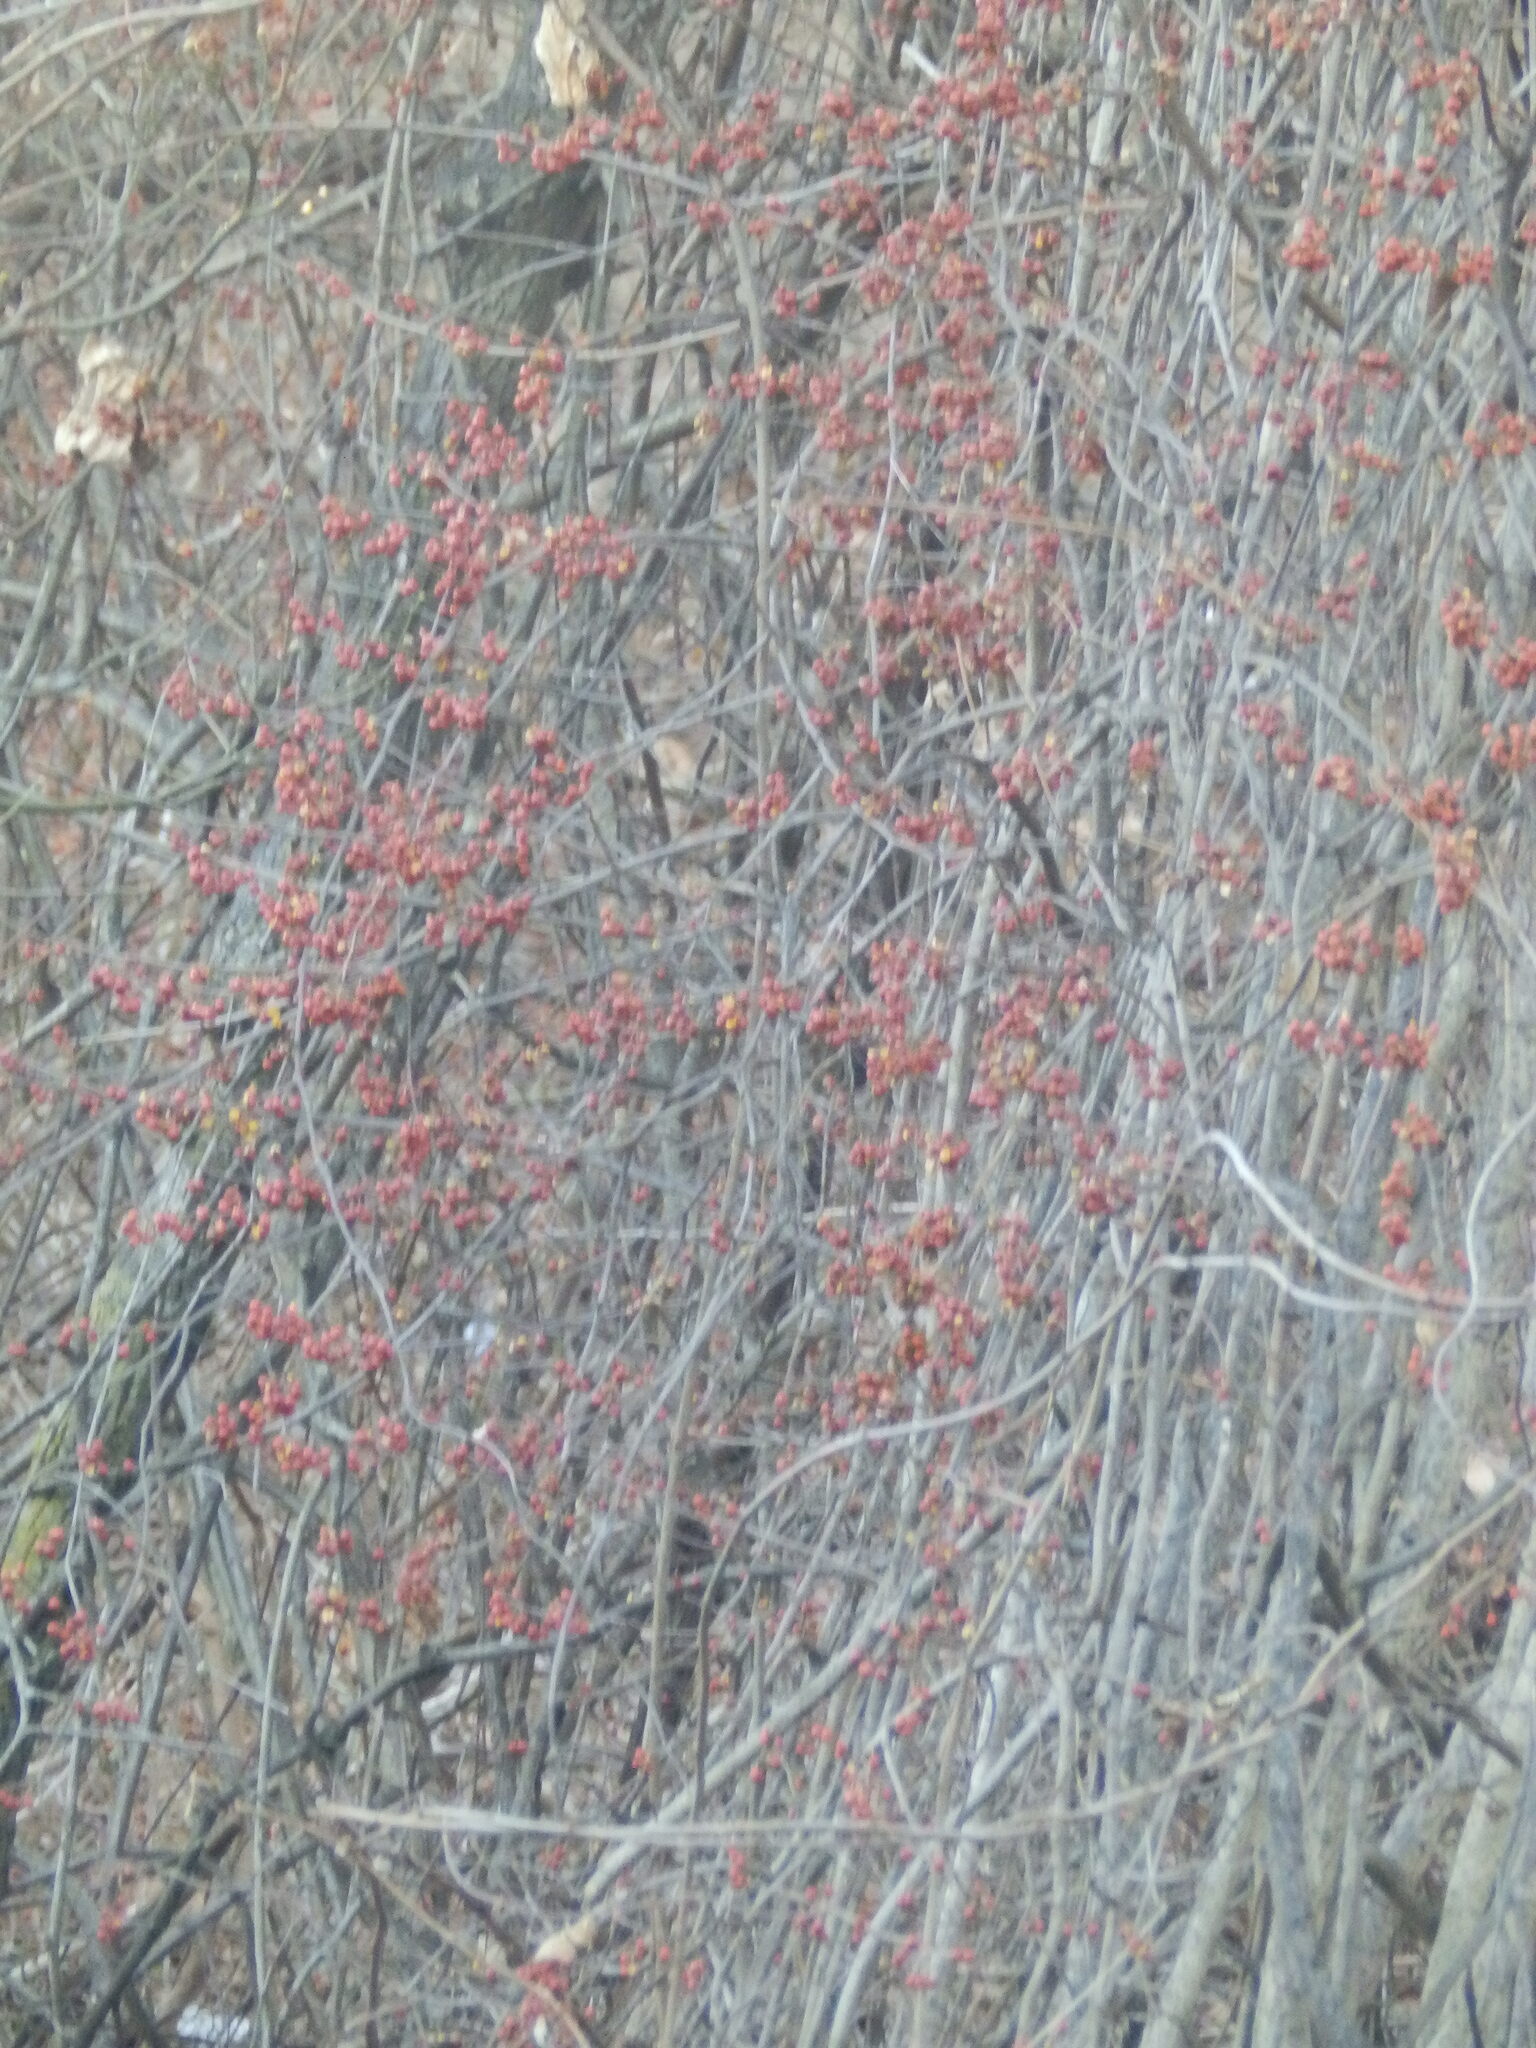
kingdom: Plantae
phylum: Tracheophyta
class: Magnoliopsida
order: Celastrales
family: Celastraceae
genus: Celastrus
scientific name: Celastrus orbiculatus
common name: Oriental bittersweet
